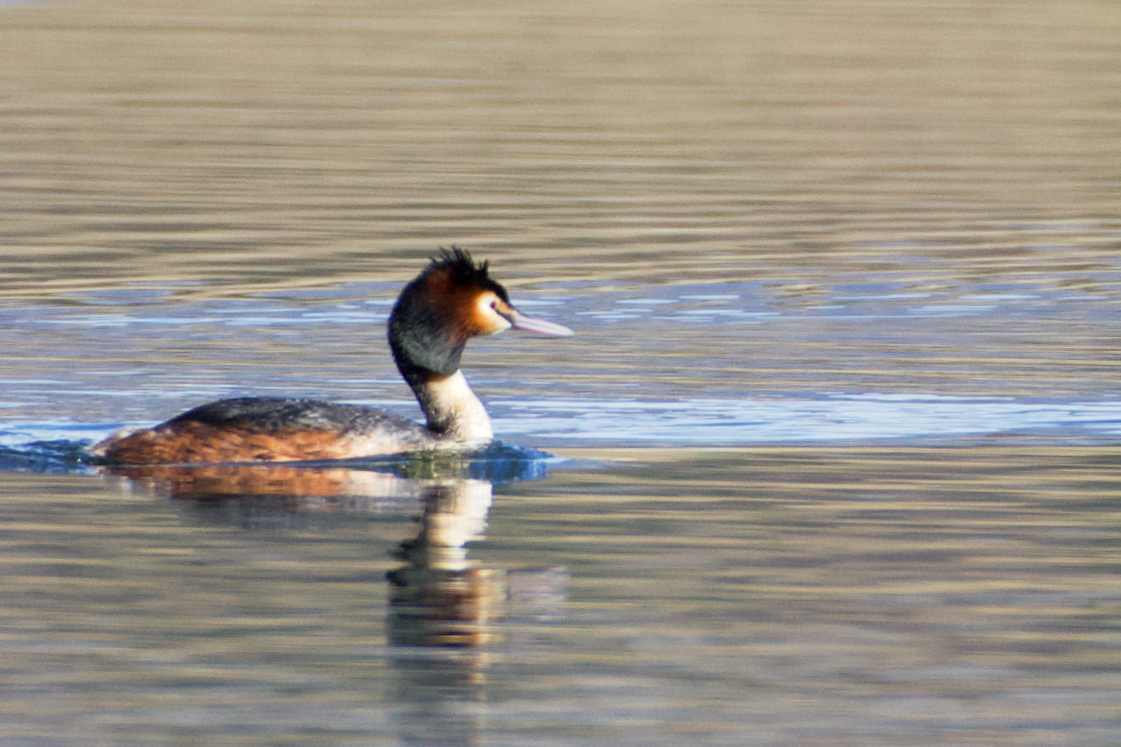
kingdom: Animalia
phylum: Chordata
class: Aves
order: Podicipediformes
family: Podicipedidae
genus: Podiceps
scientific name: Podiceps cristatus
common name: Great crested grebe
